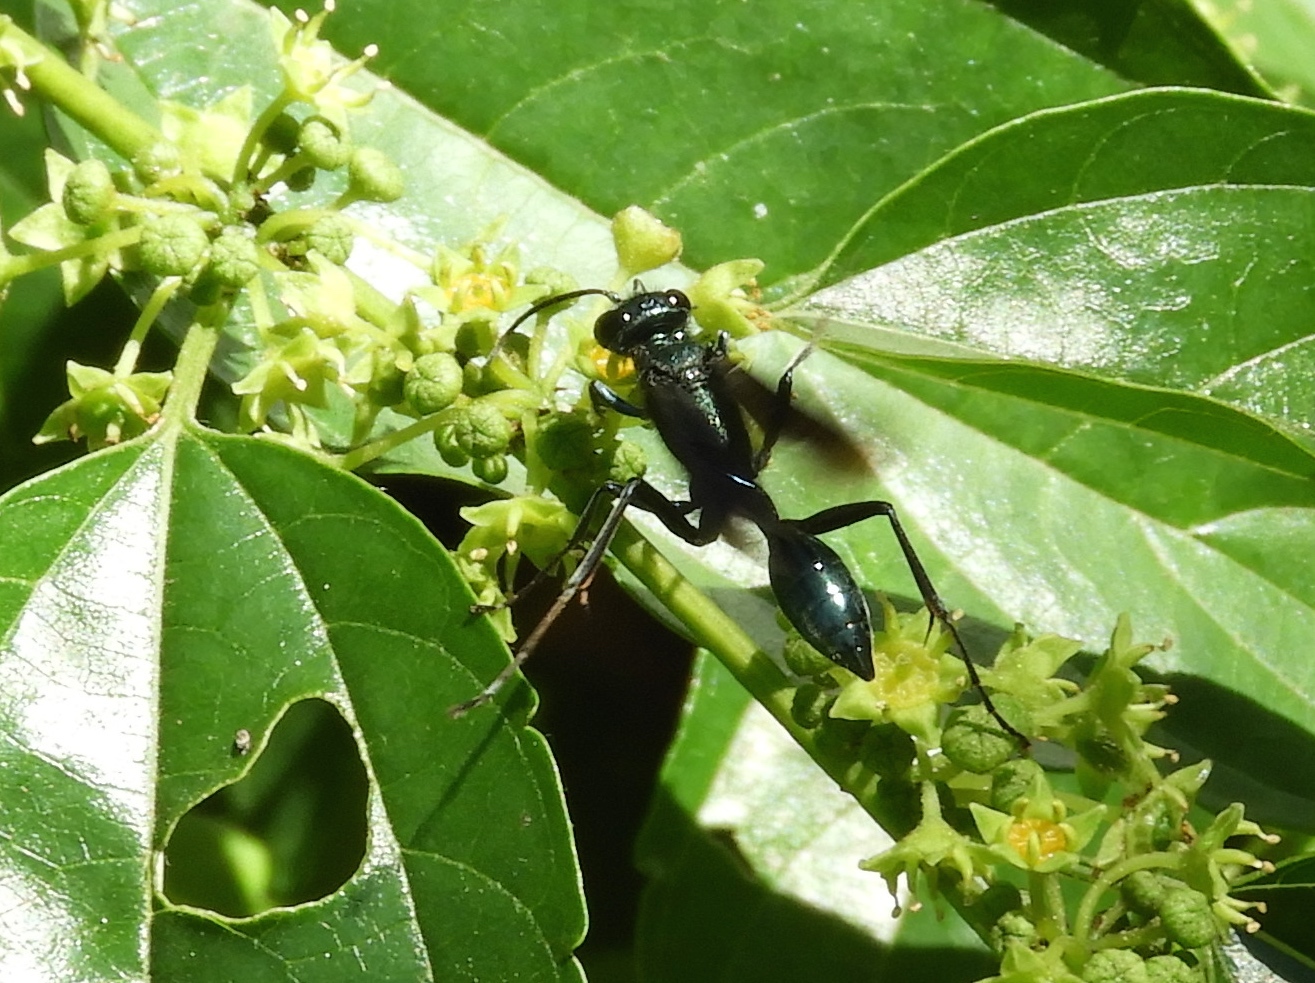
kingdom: Animalia
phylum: Arthropoda
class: Insecta
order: Hymenoptera
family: Sphecidae
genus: Chalybion
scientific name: Chalybion
